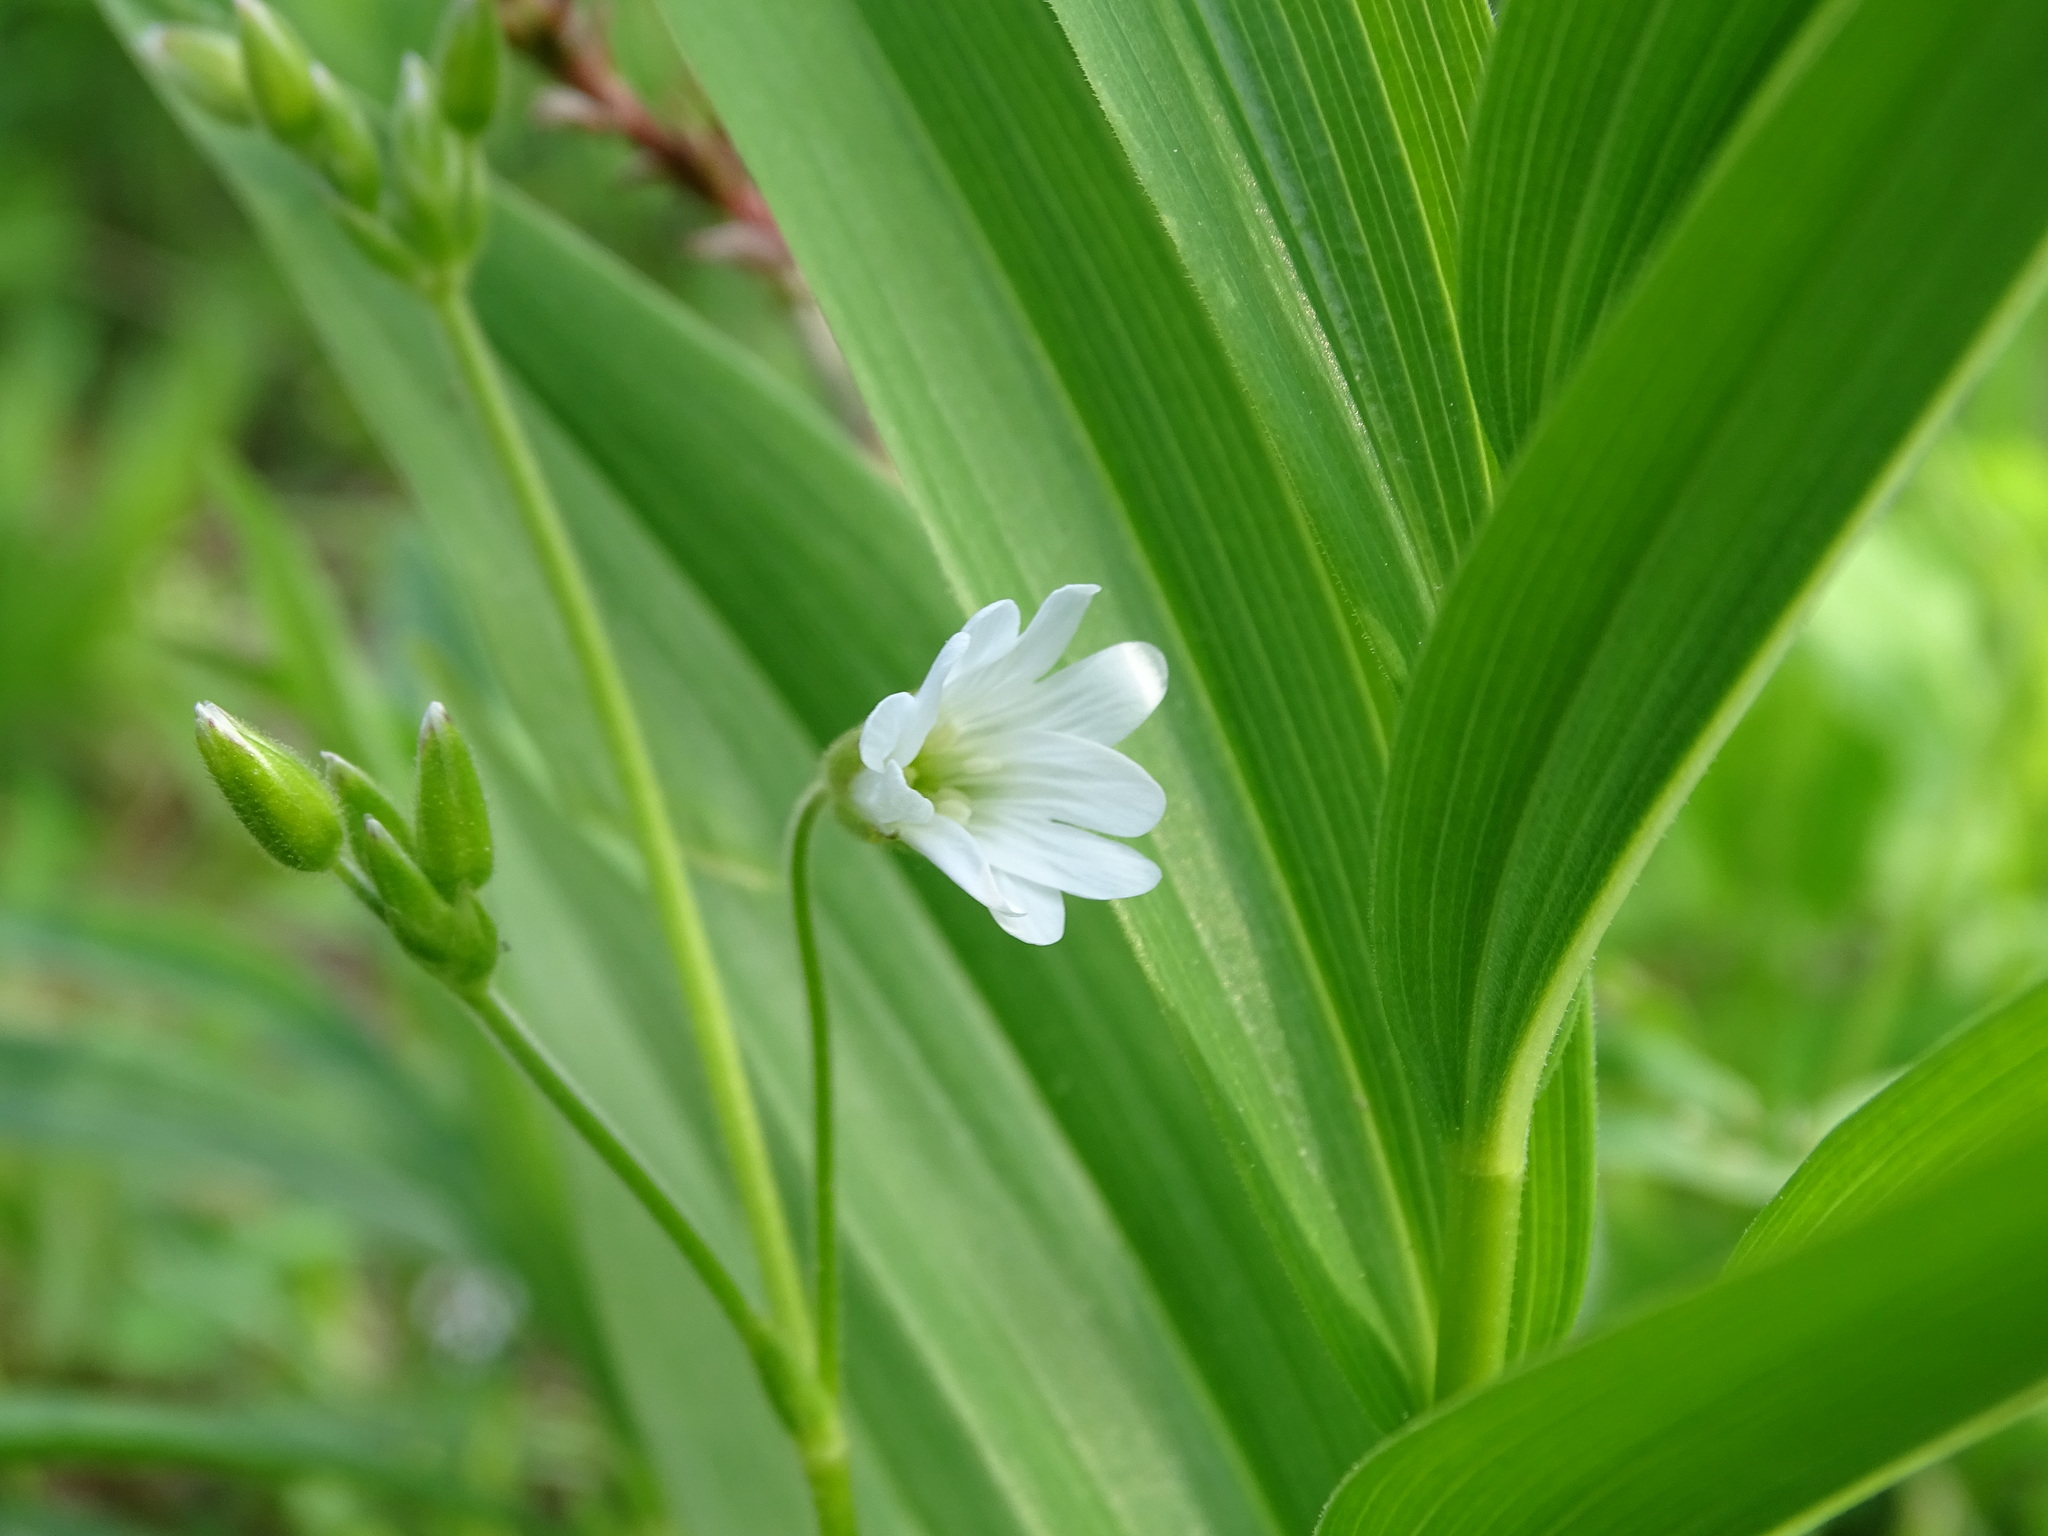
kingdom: Plantae
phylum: Tracheophyta
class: Magnoliopsida
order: Caryophyllales
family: Caryophyllaceae
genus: Cerastium
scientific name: Cerastium velutinum
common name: Barren chickweed
